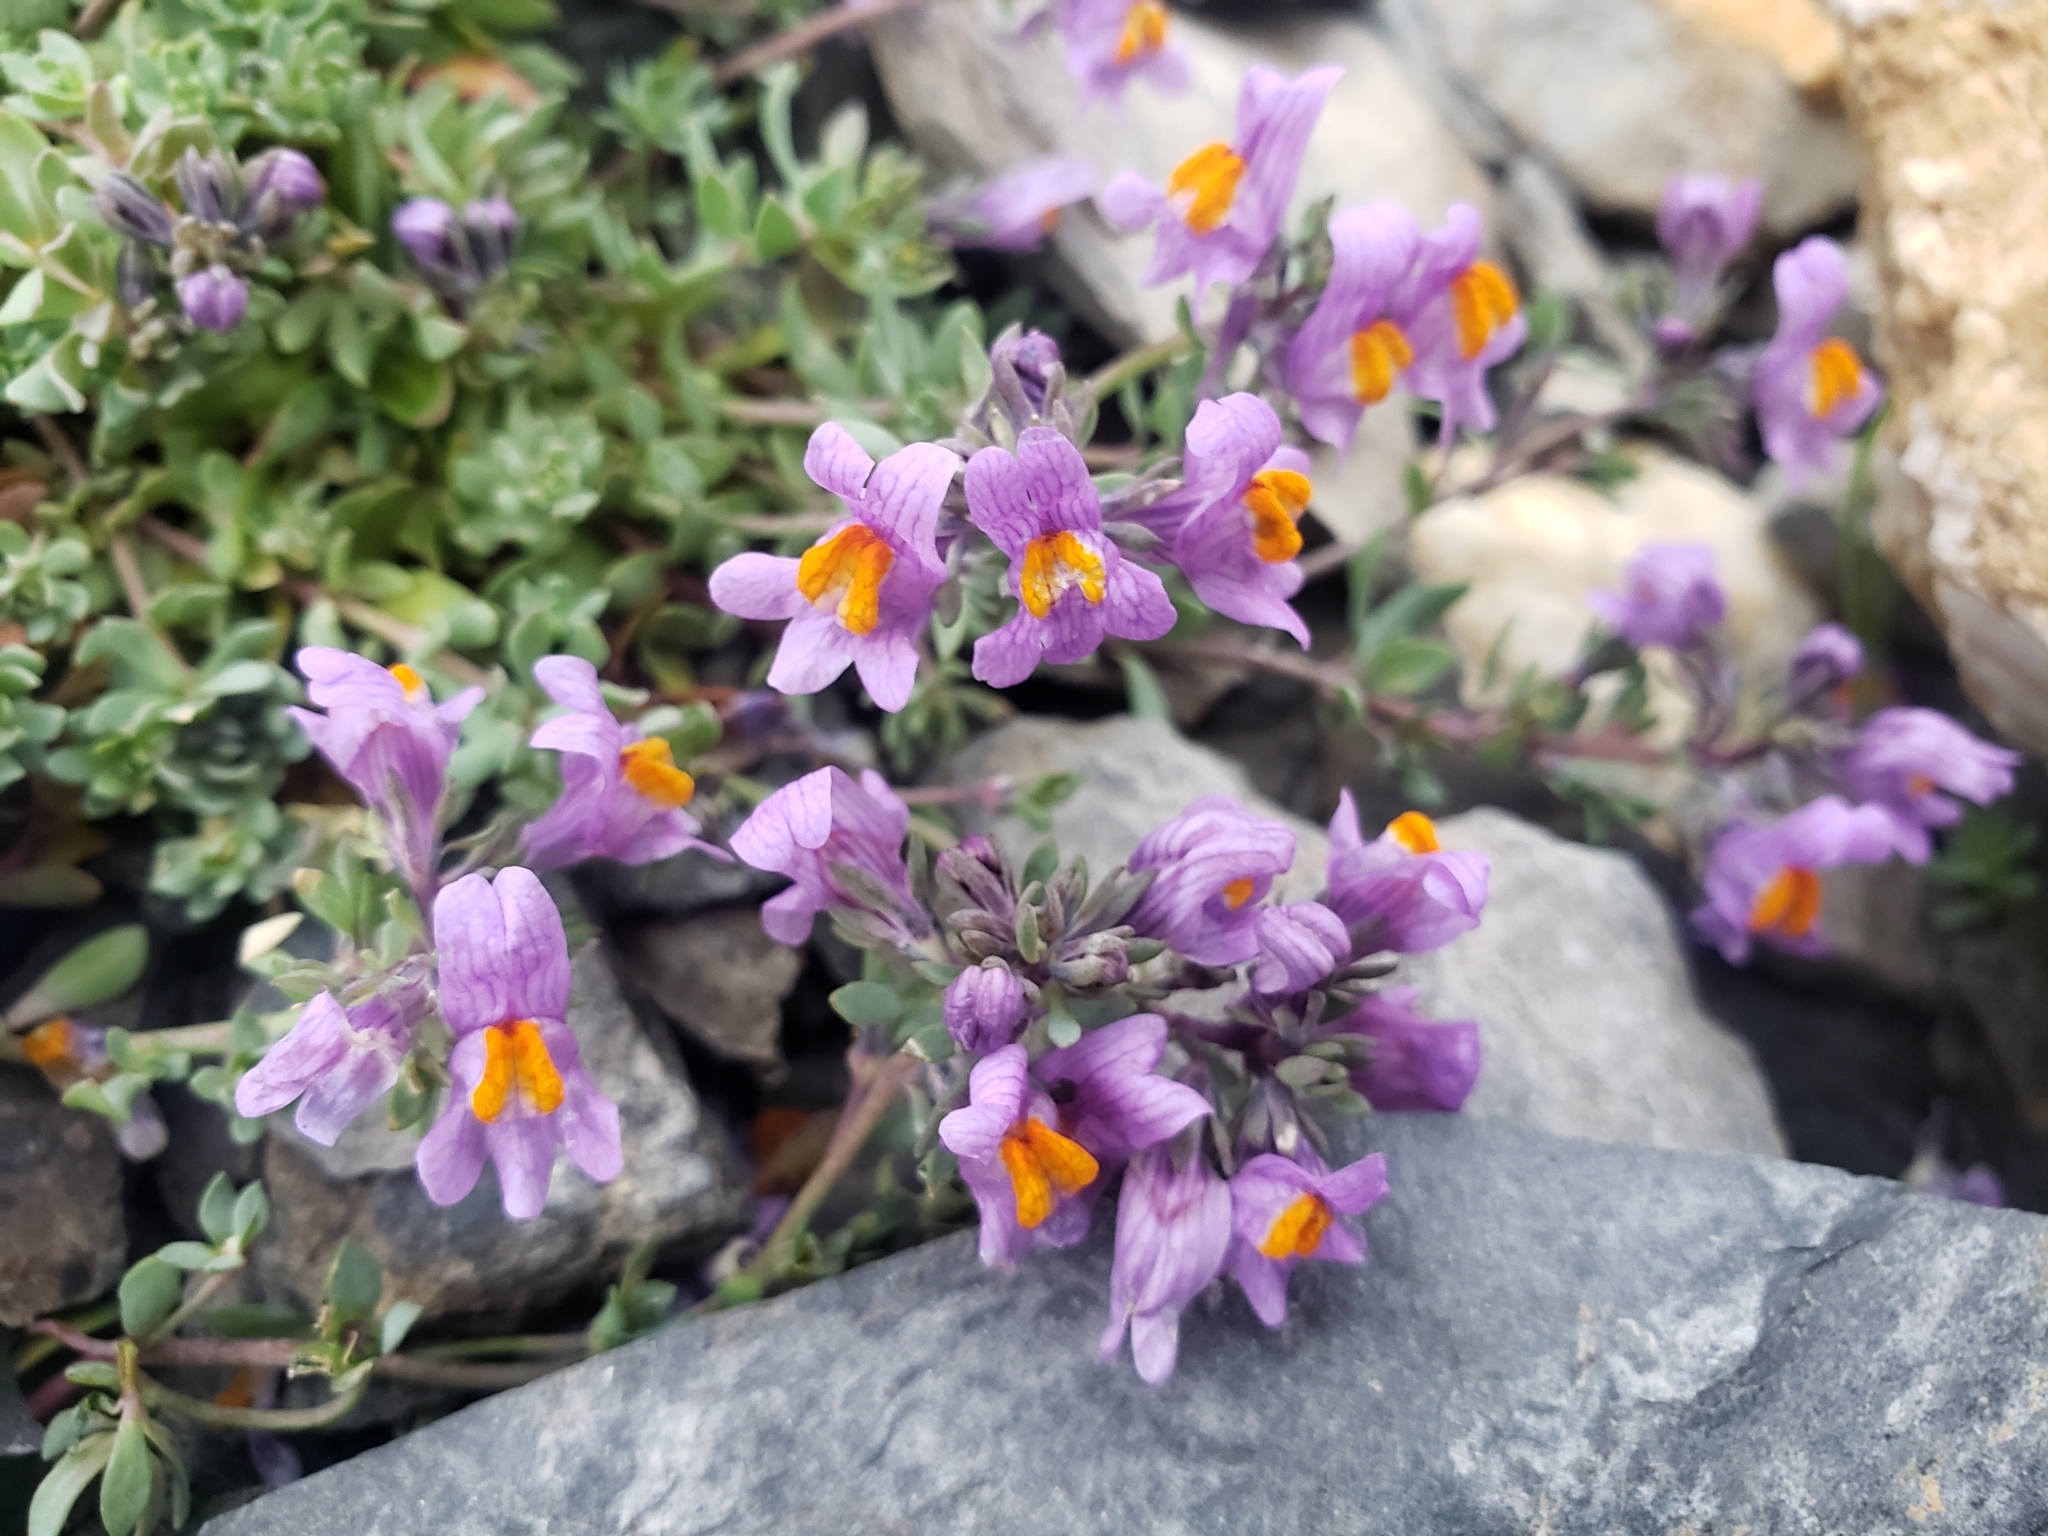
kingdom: Plantae
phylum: Tracheophyta
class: Magnoliopsida
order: Lamiales
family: Plantaginaceae
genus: Linaria
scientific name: Linaria alpina
